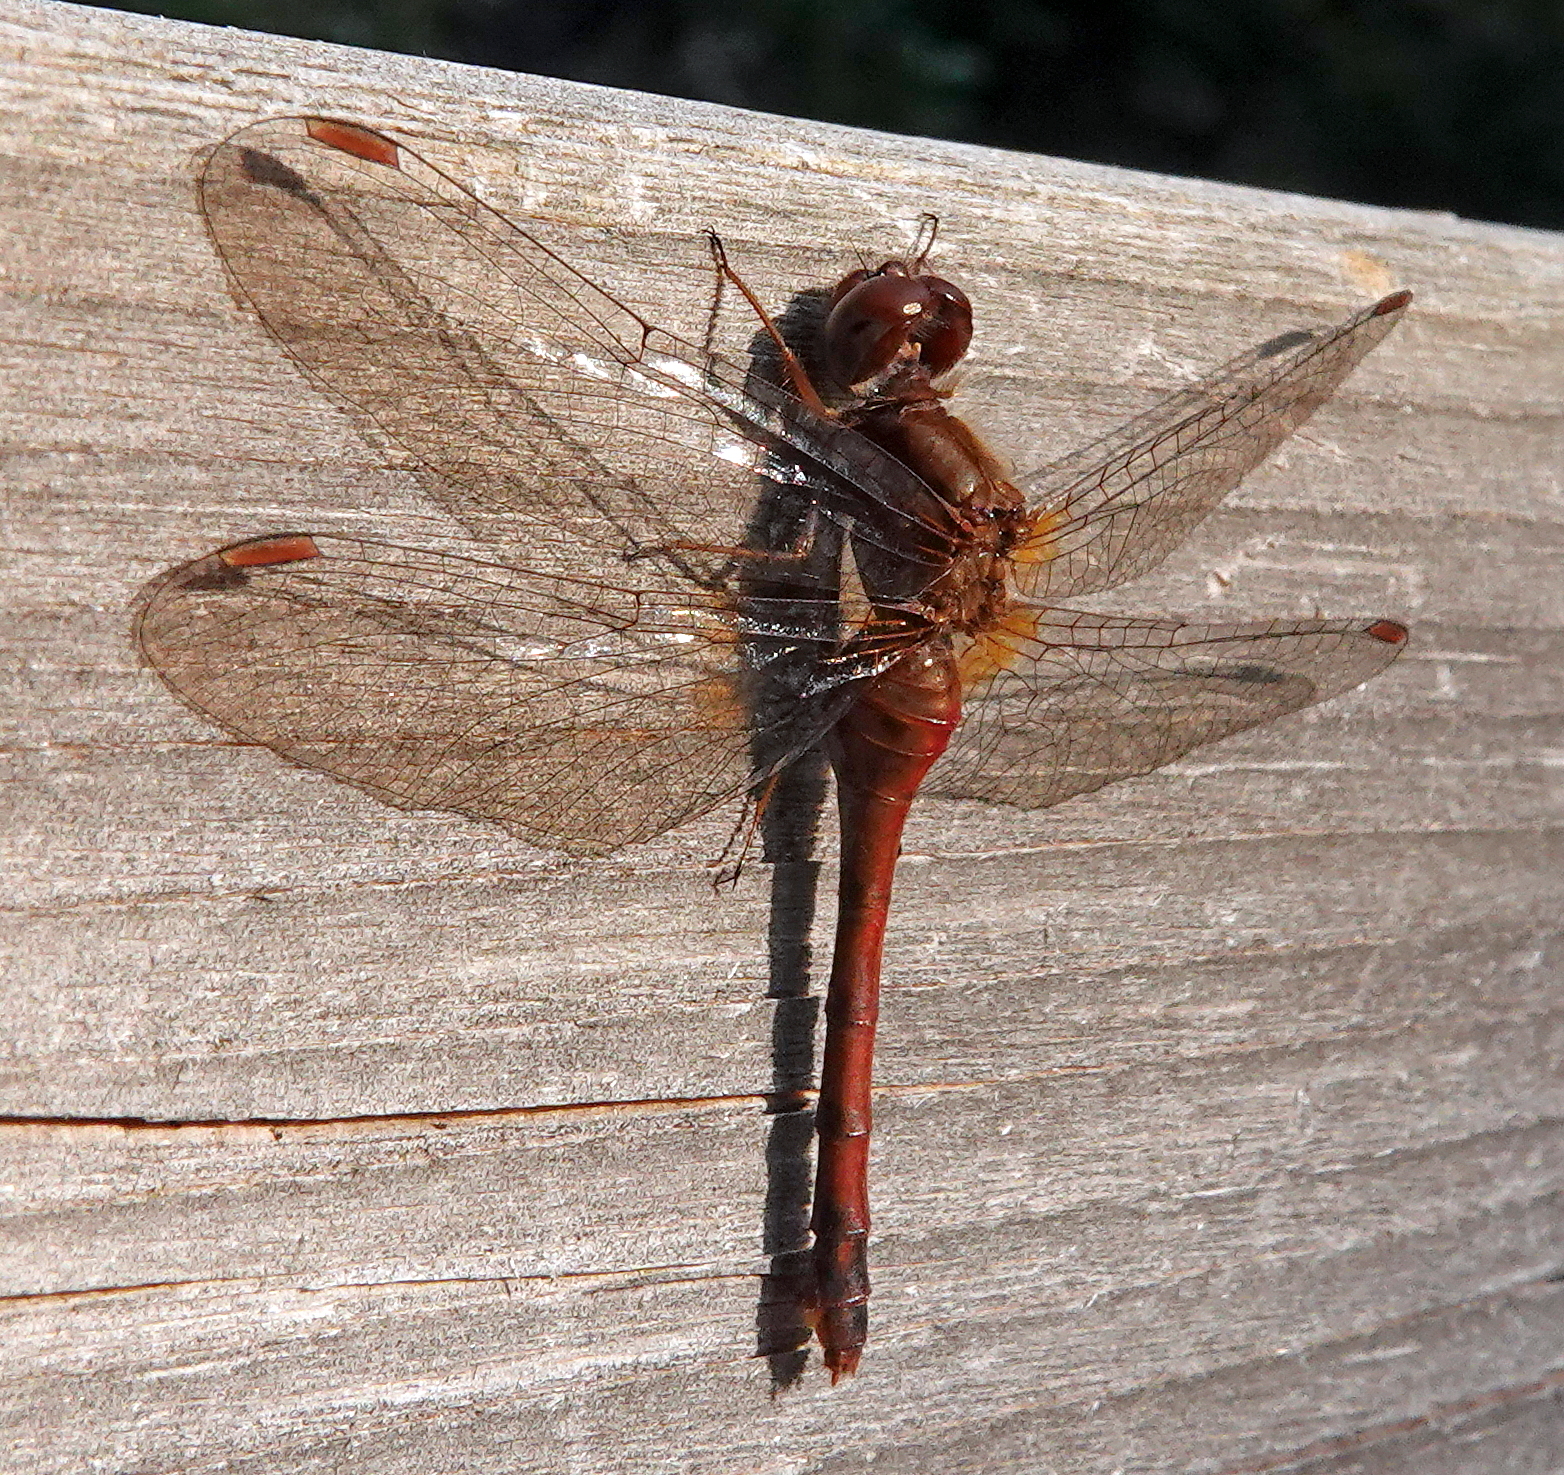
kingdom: Animalia
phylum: Arthropoda
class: Insecta
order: Odonata
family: Libellulidae
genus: Sympetrum
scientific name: Sympetrum vicinum
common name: Autumn meadowhawk
